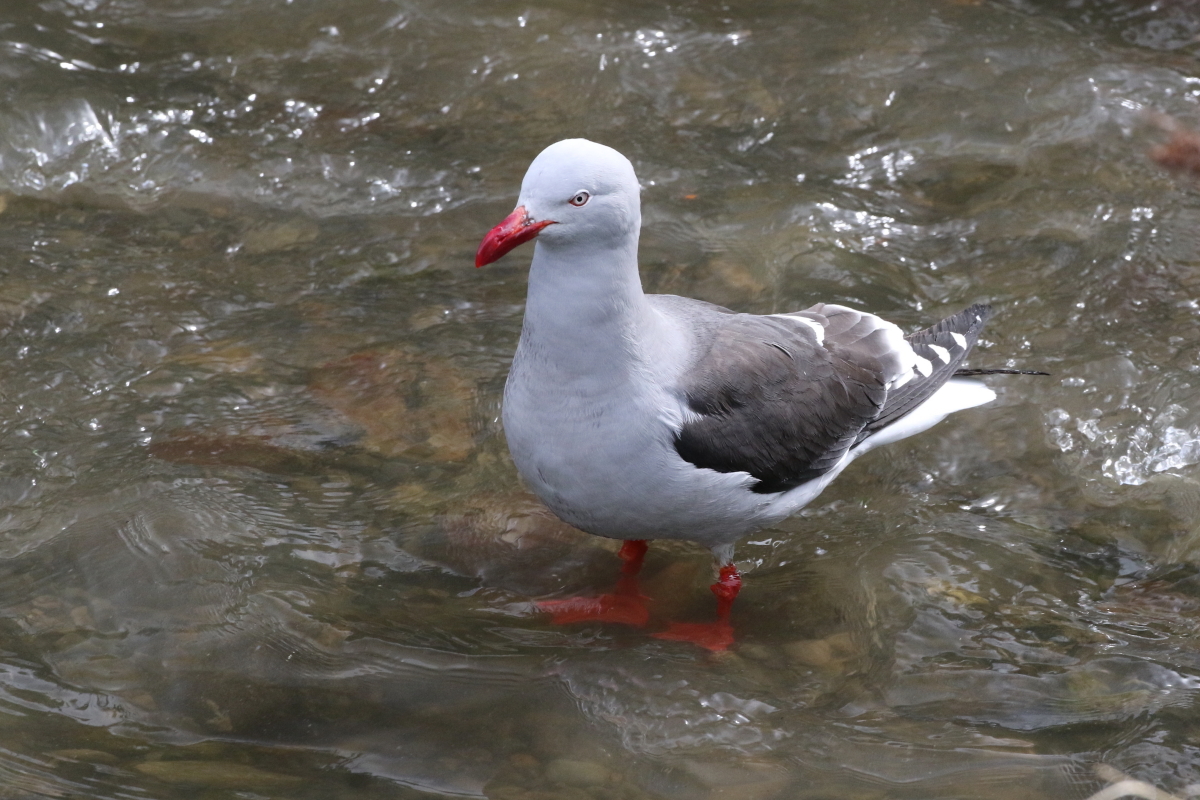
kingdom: Animalia
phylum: Chordata
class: Aves
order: Charadriiformes
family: Laridae
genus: Leucophaeus
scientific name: Leucophaeus scoresbii
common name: Dolphin gull
